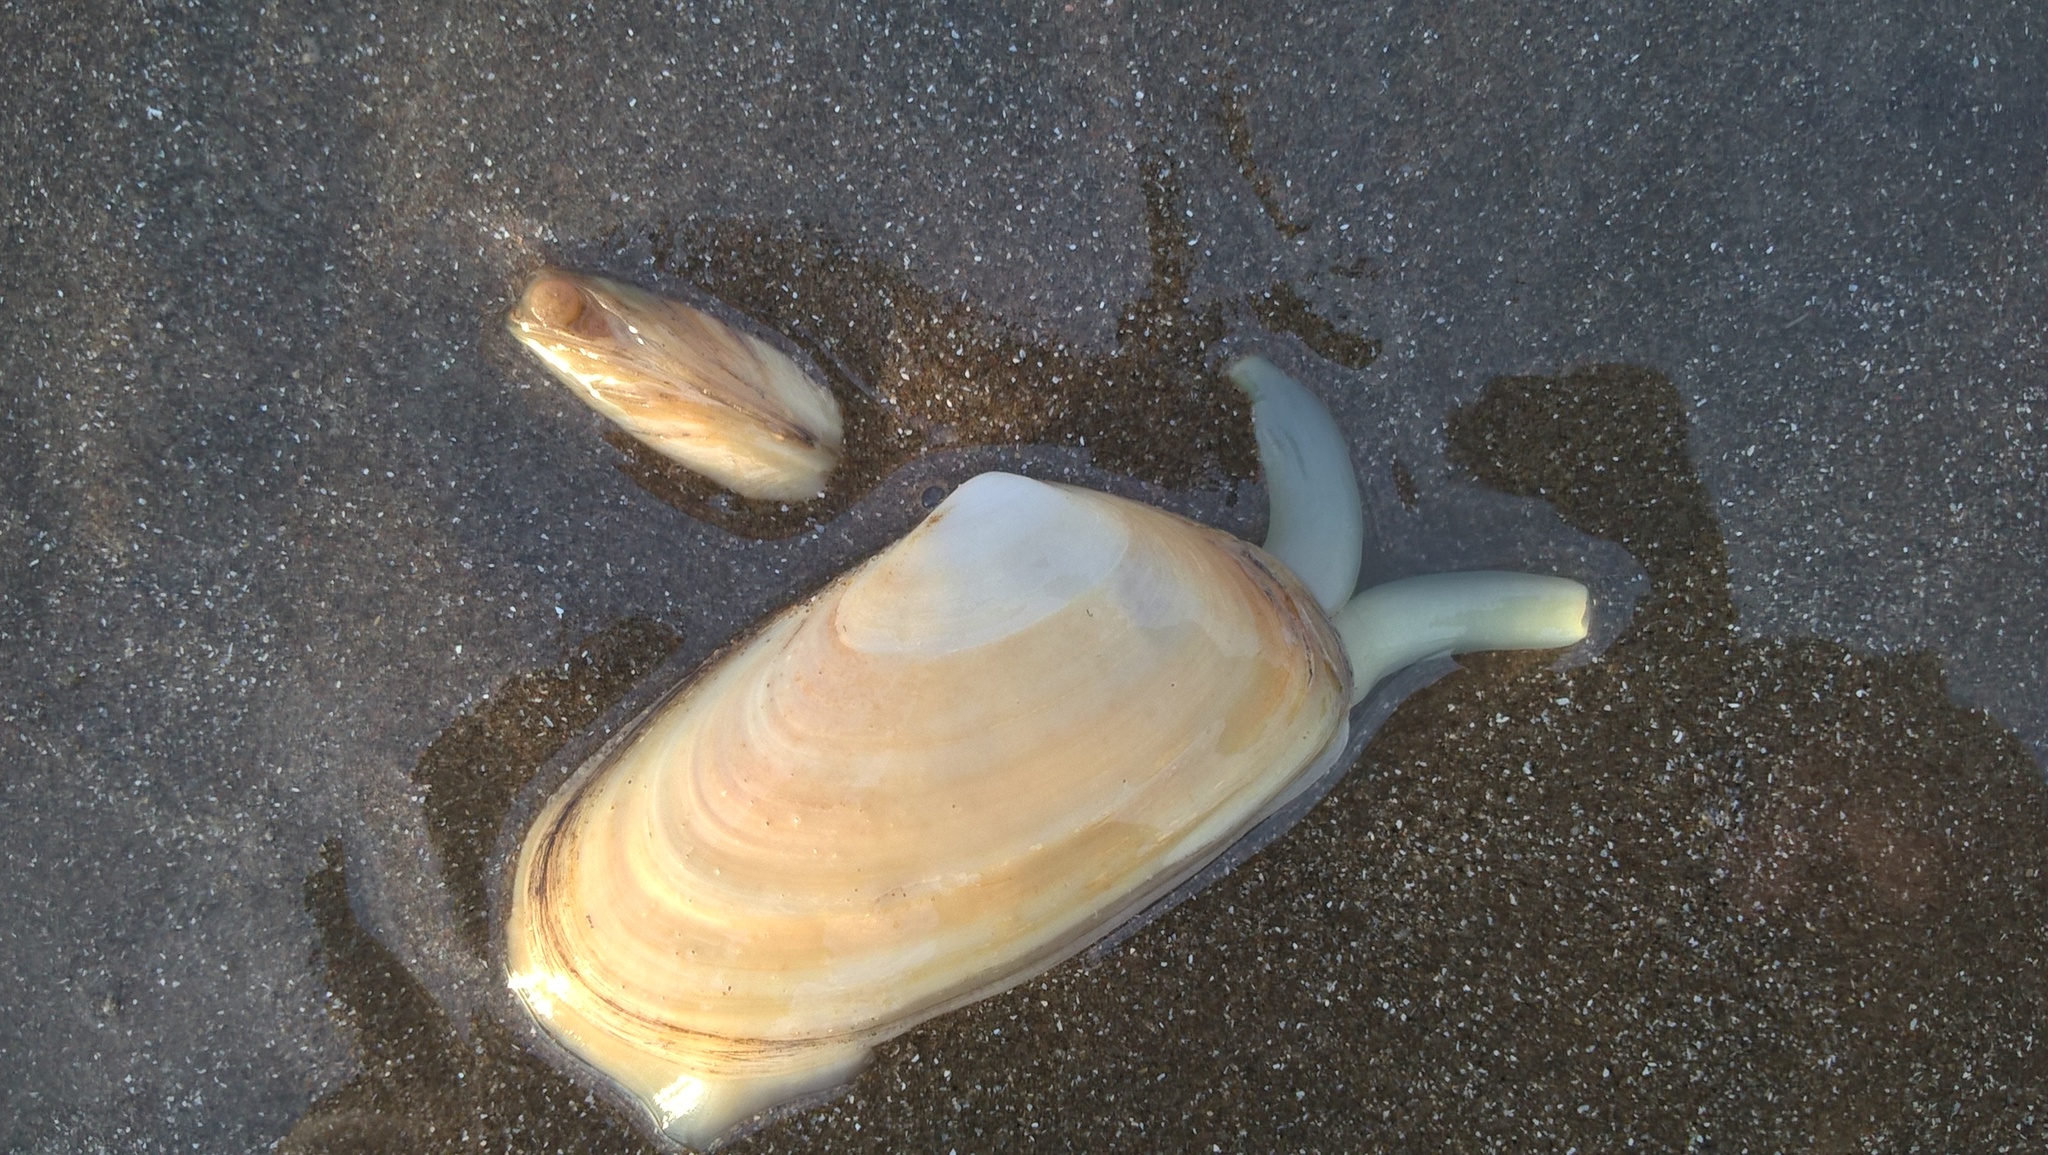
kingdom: Animalia
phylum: Mollusca
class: Bivalvia
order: Venerida
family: Mesodesmatidae
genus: Amarilladesma
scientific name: Amarilladesma mactroides
